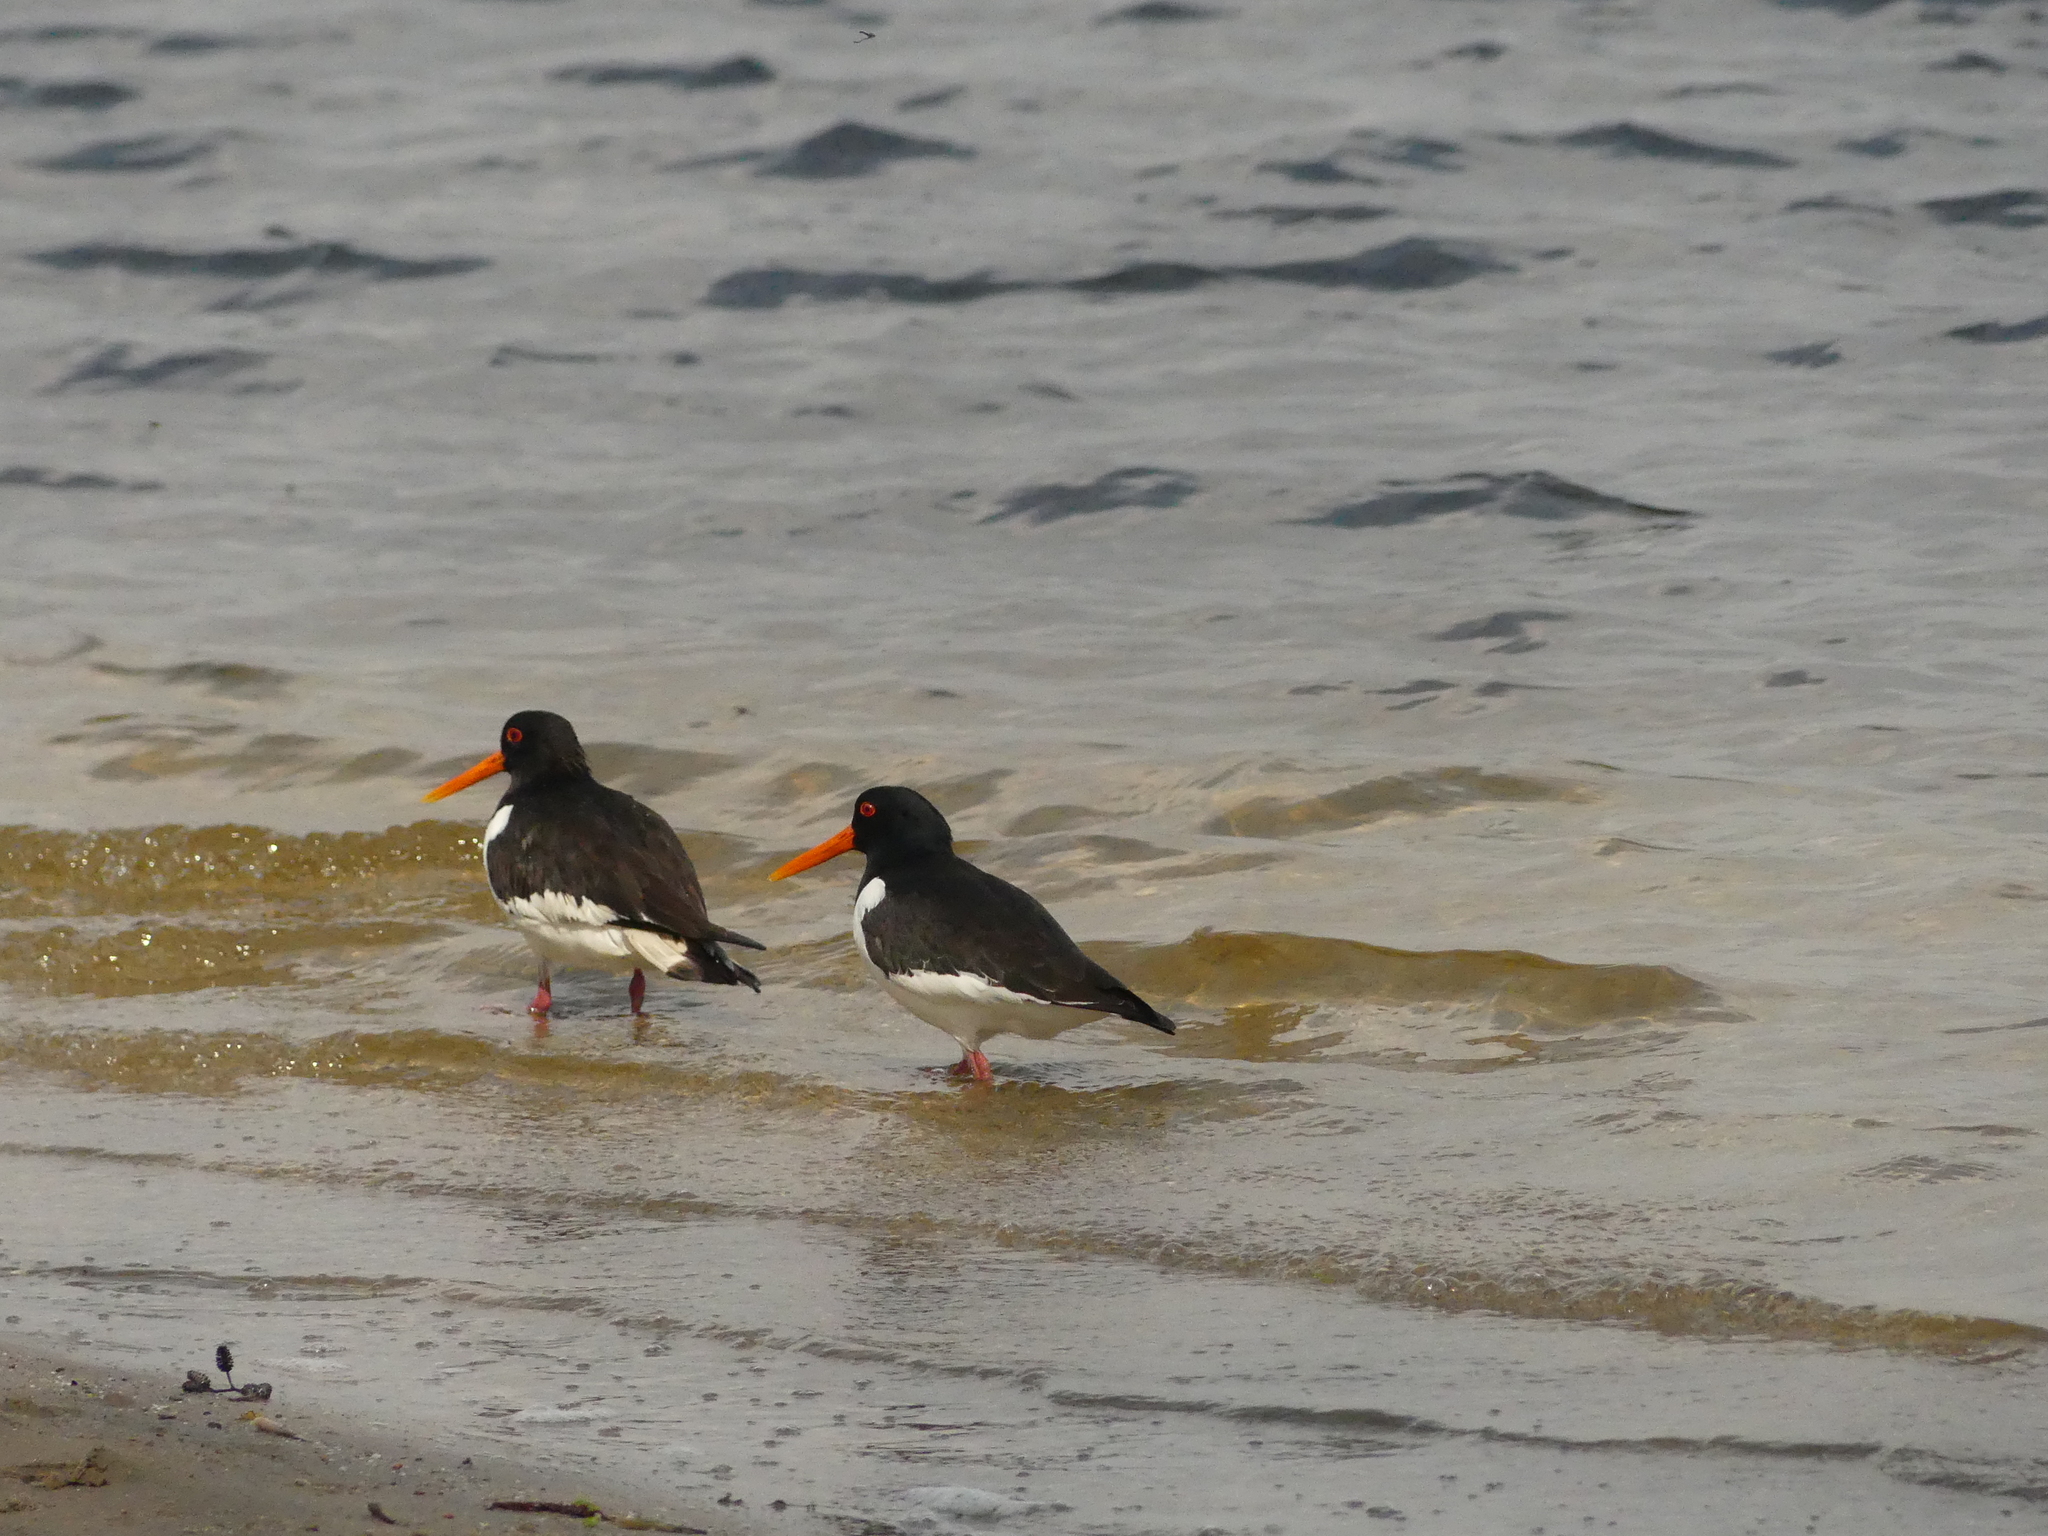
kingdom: Animalia
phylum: Chordata
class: Aves
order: Charadriiformes
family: Haematopodidae
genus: Haematopus
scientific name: Haematopus ostralegus
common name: Eurasian oystercatcher
